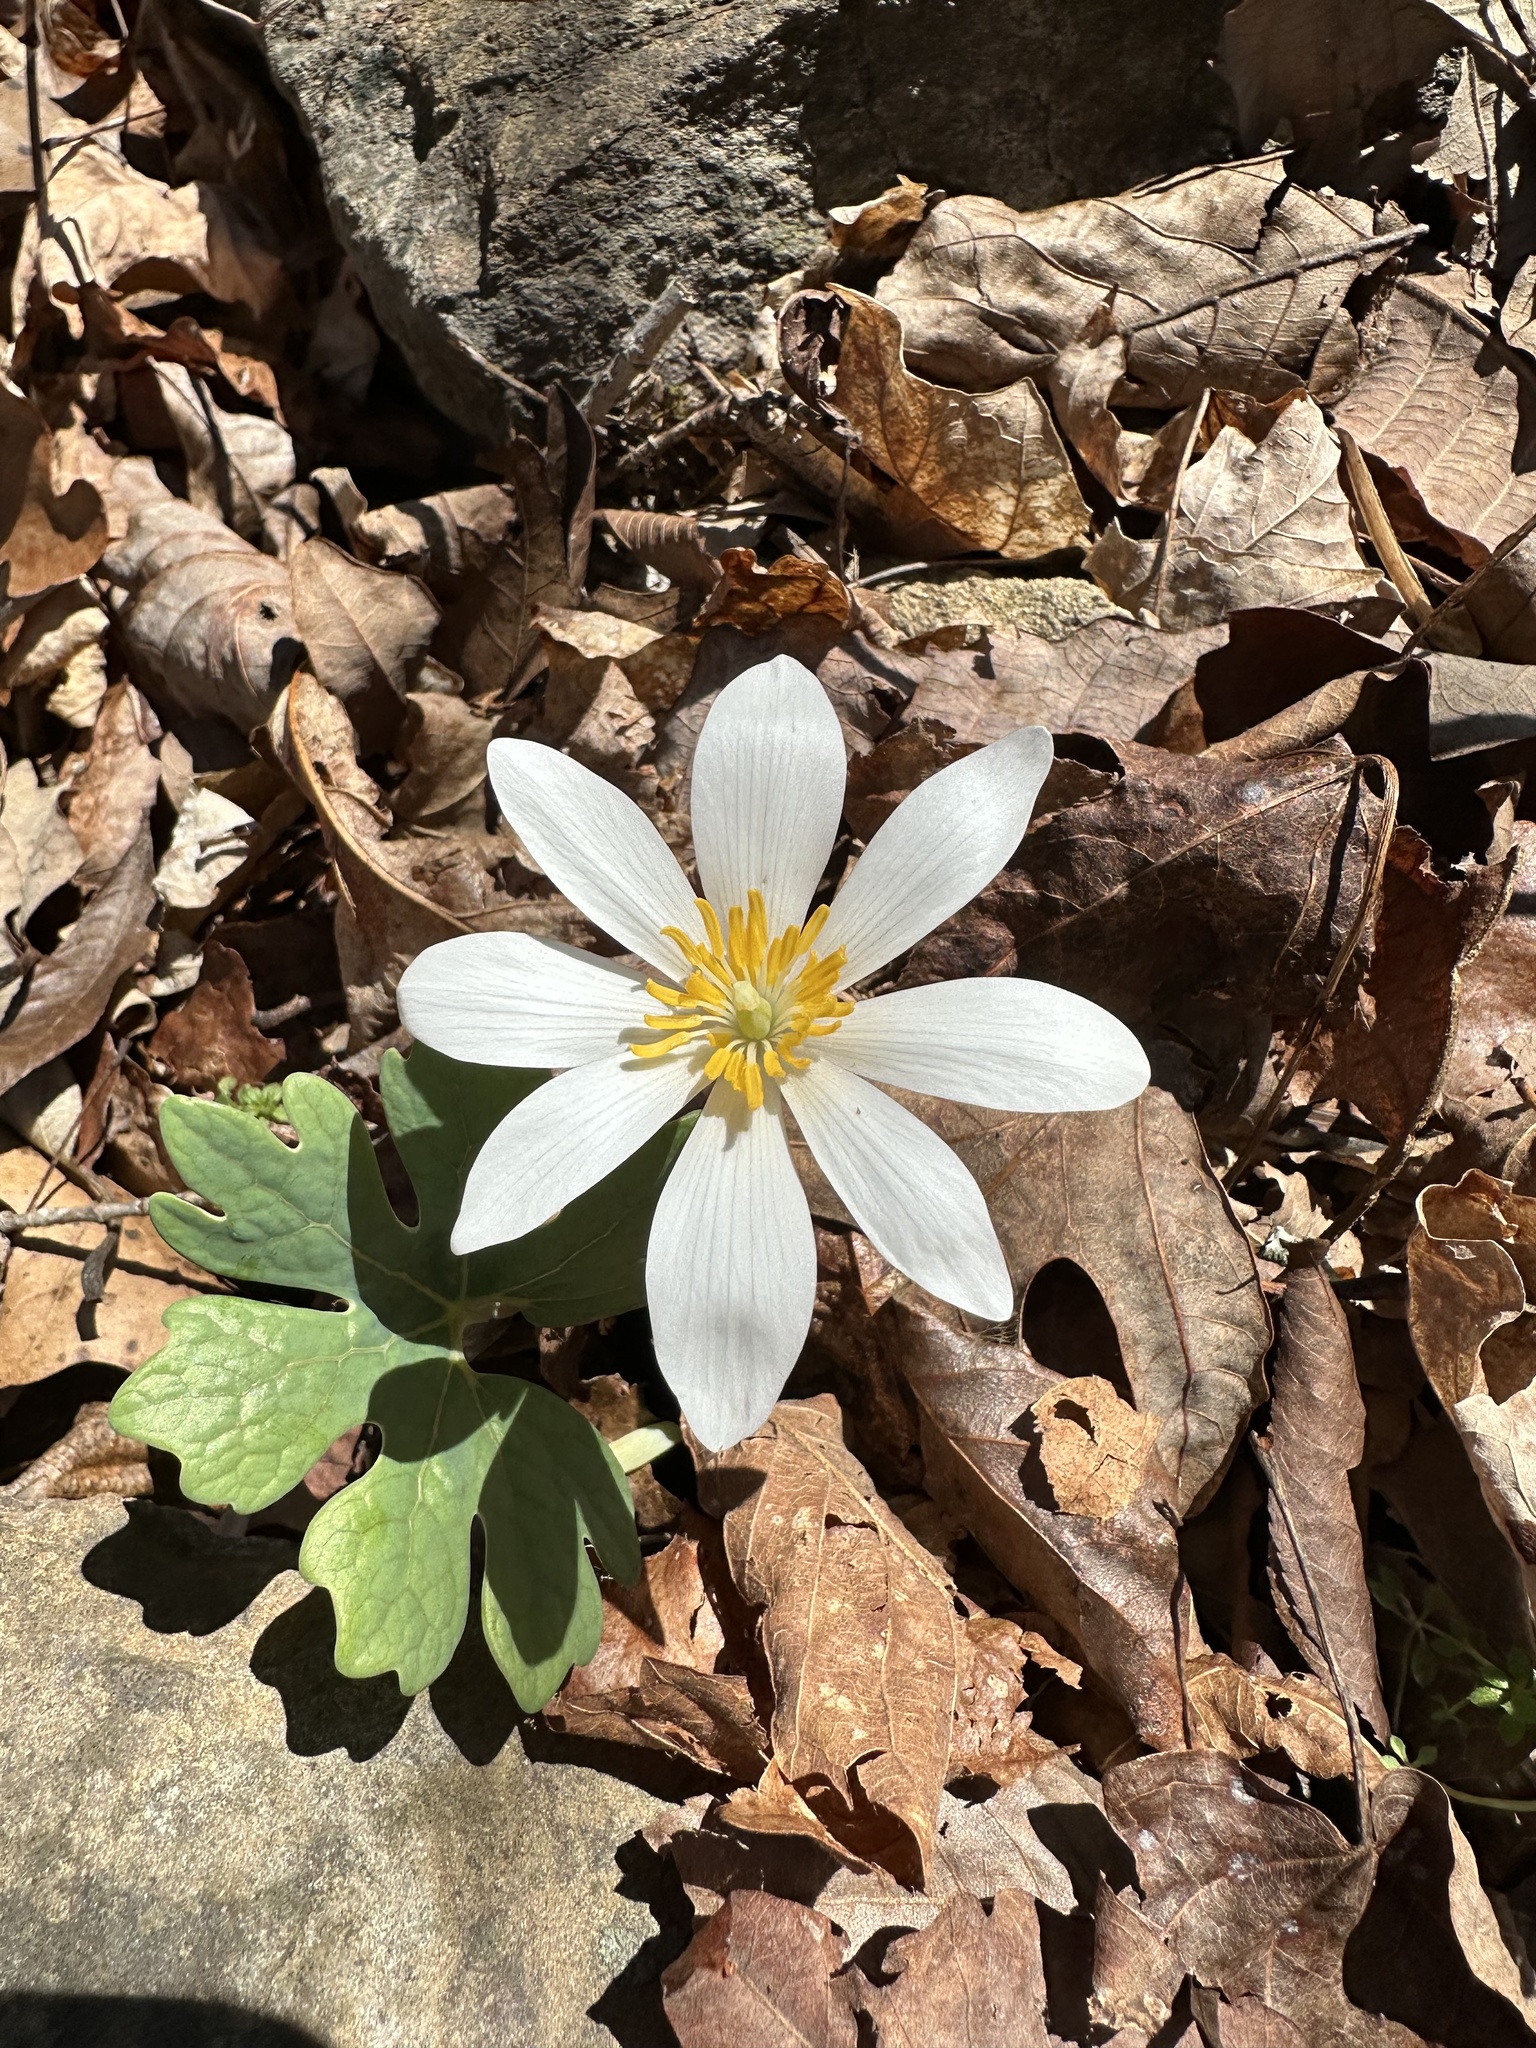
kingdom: Plantae
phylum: Tracheophyta
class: Magnoliopsida
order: Ranunculales
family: Papaveraceae
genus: Sanguinaria
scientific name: Sanguinaria canadensis
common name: Bloodroot
